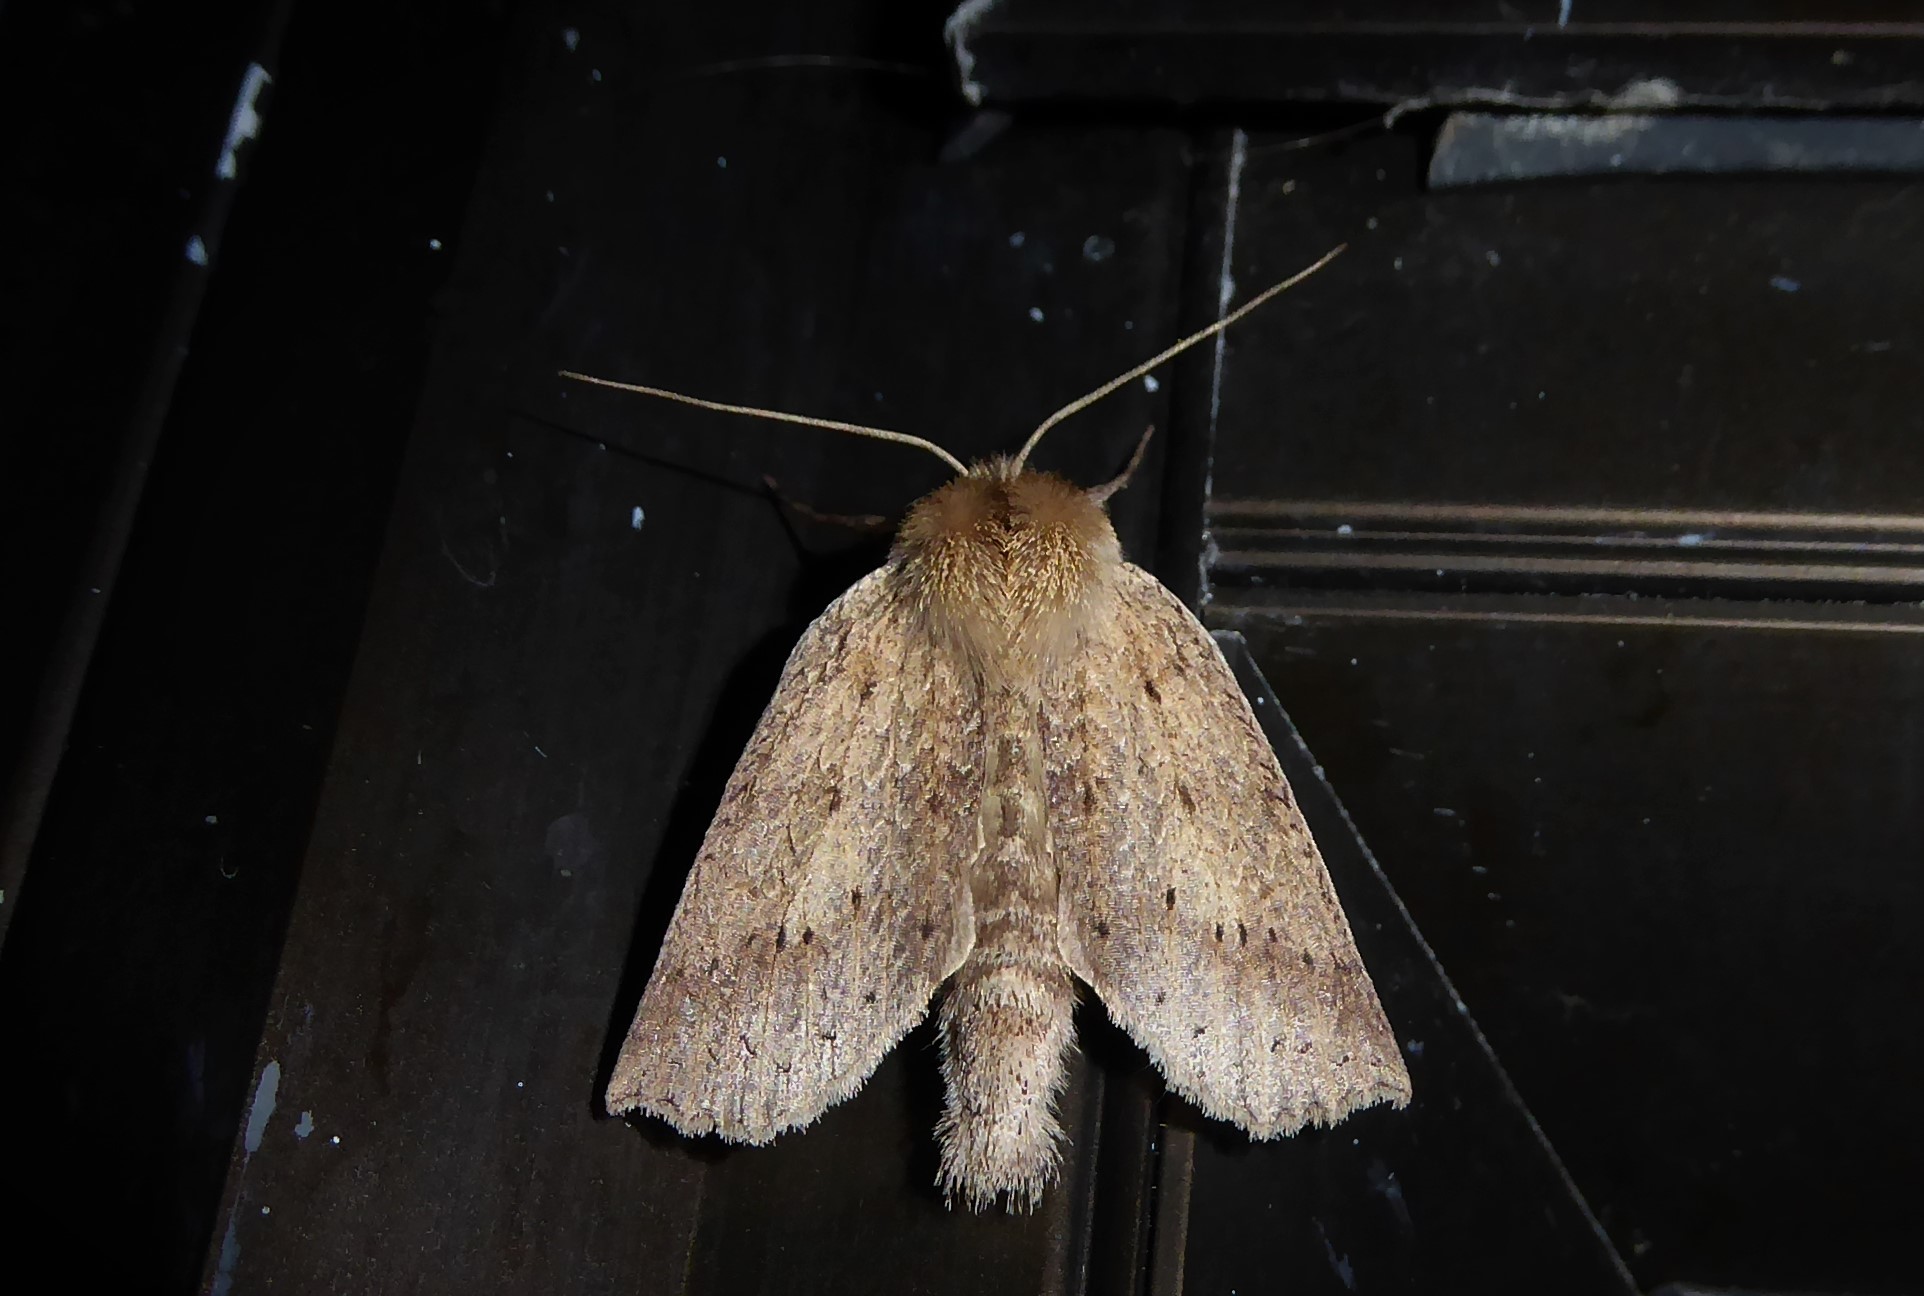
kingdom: Animalia
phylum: Arthropoda
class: Insecta
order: Lepidoptera
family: Geometridae
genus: Declana
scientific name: Declana leptomera
